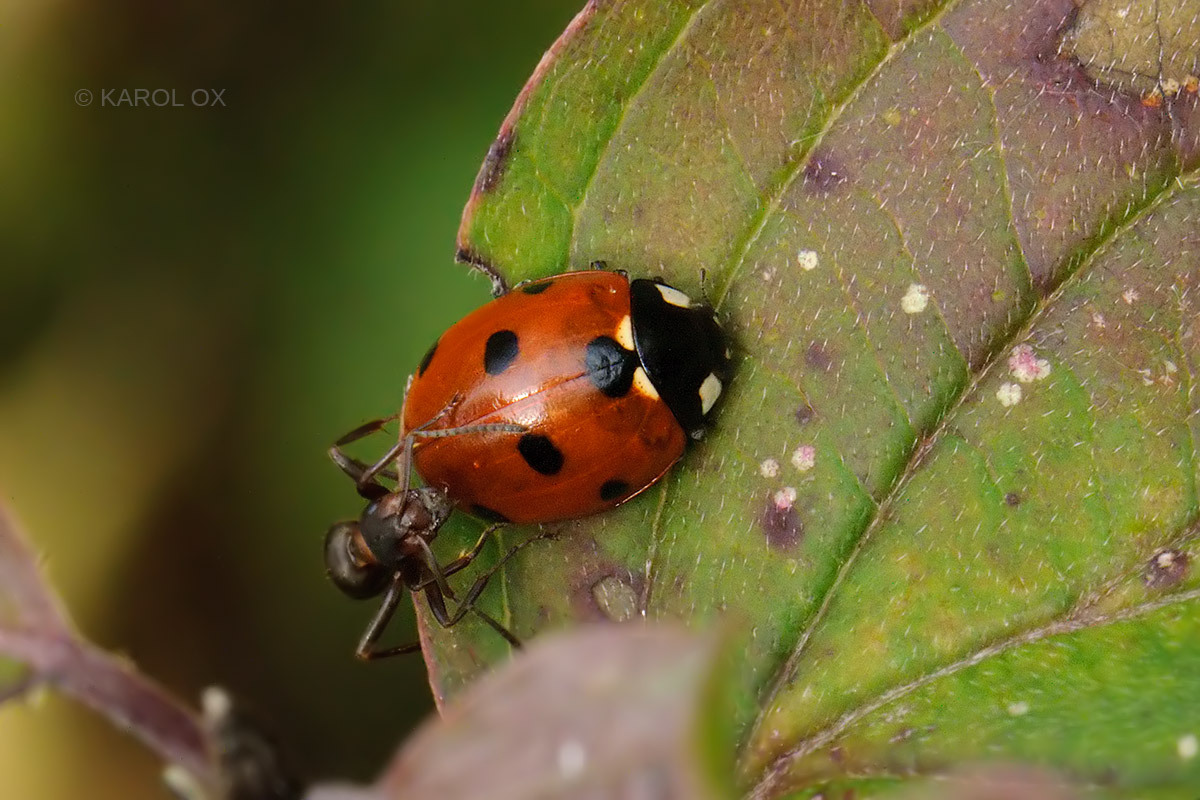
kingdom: Animalia
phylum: Arthropoda
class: Insecta
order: Coleoptera
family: Coccinellidae
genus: Coccinella
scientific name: Coccinella septempunctata
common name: Sevenspotted lady beetle
